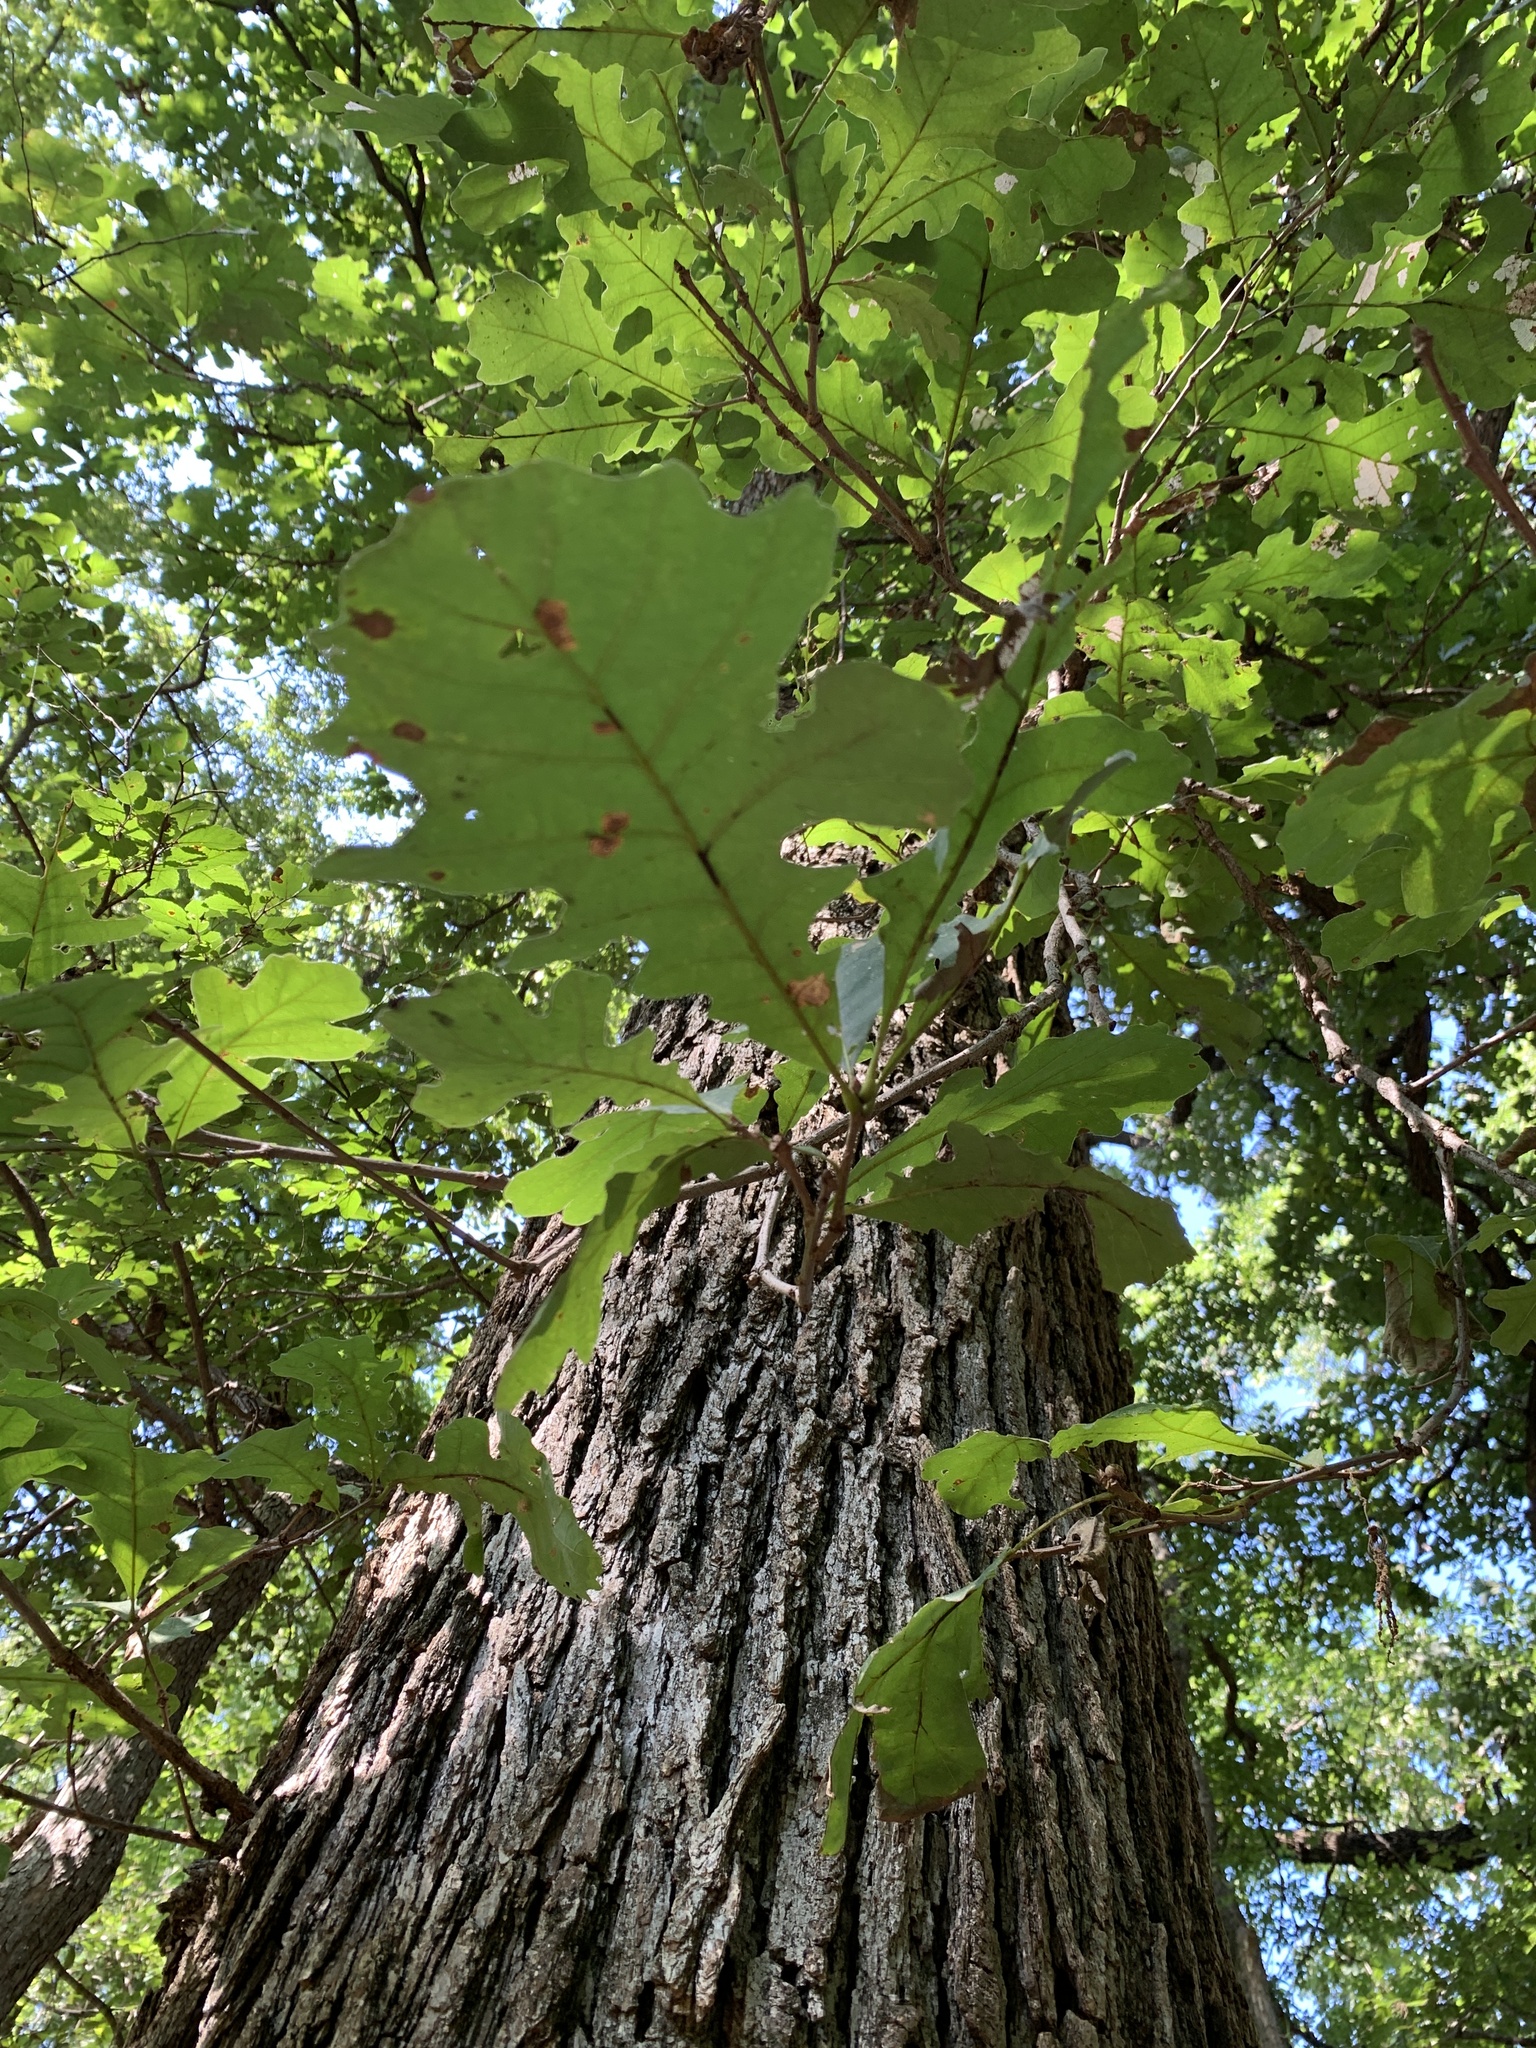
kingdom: Plantae
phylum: Tracheophyta
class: Magnoliopsida
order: Fagales
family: Fagaceae
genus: Quercus
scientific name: Quercus macrocarpa
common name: Bur oak
